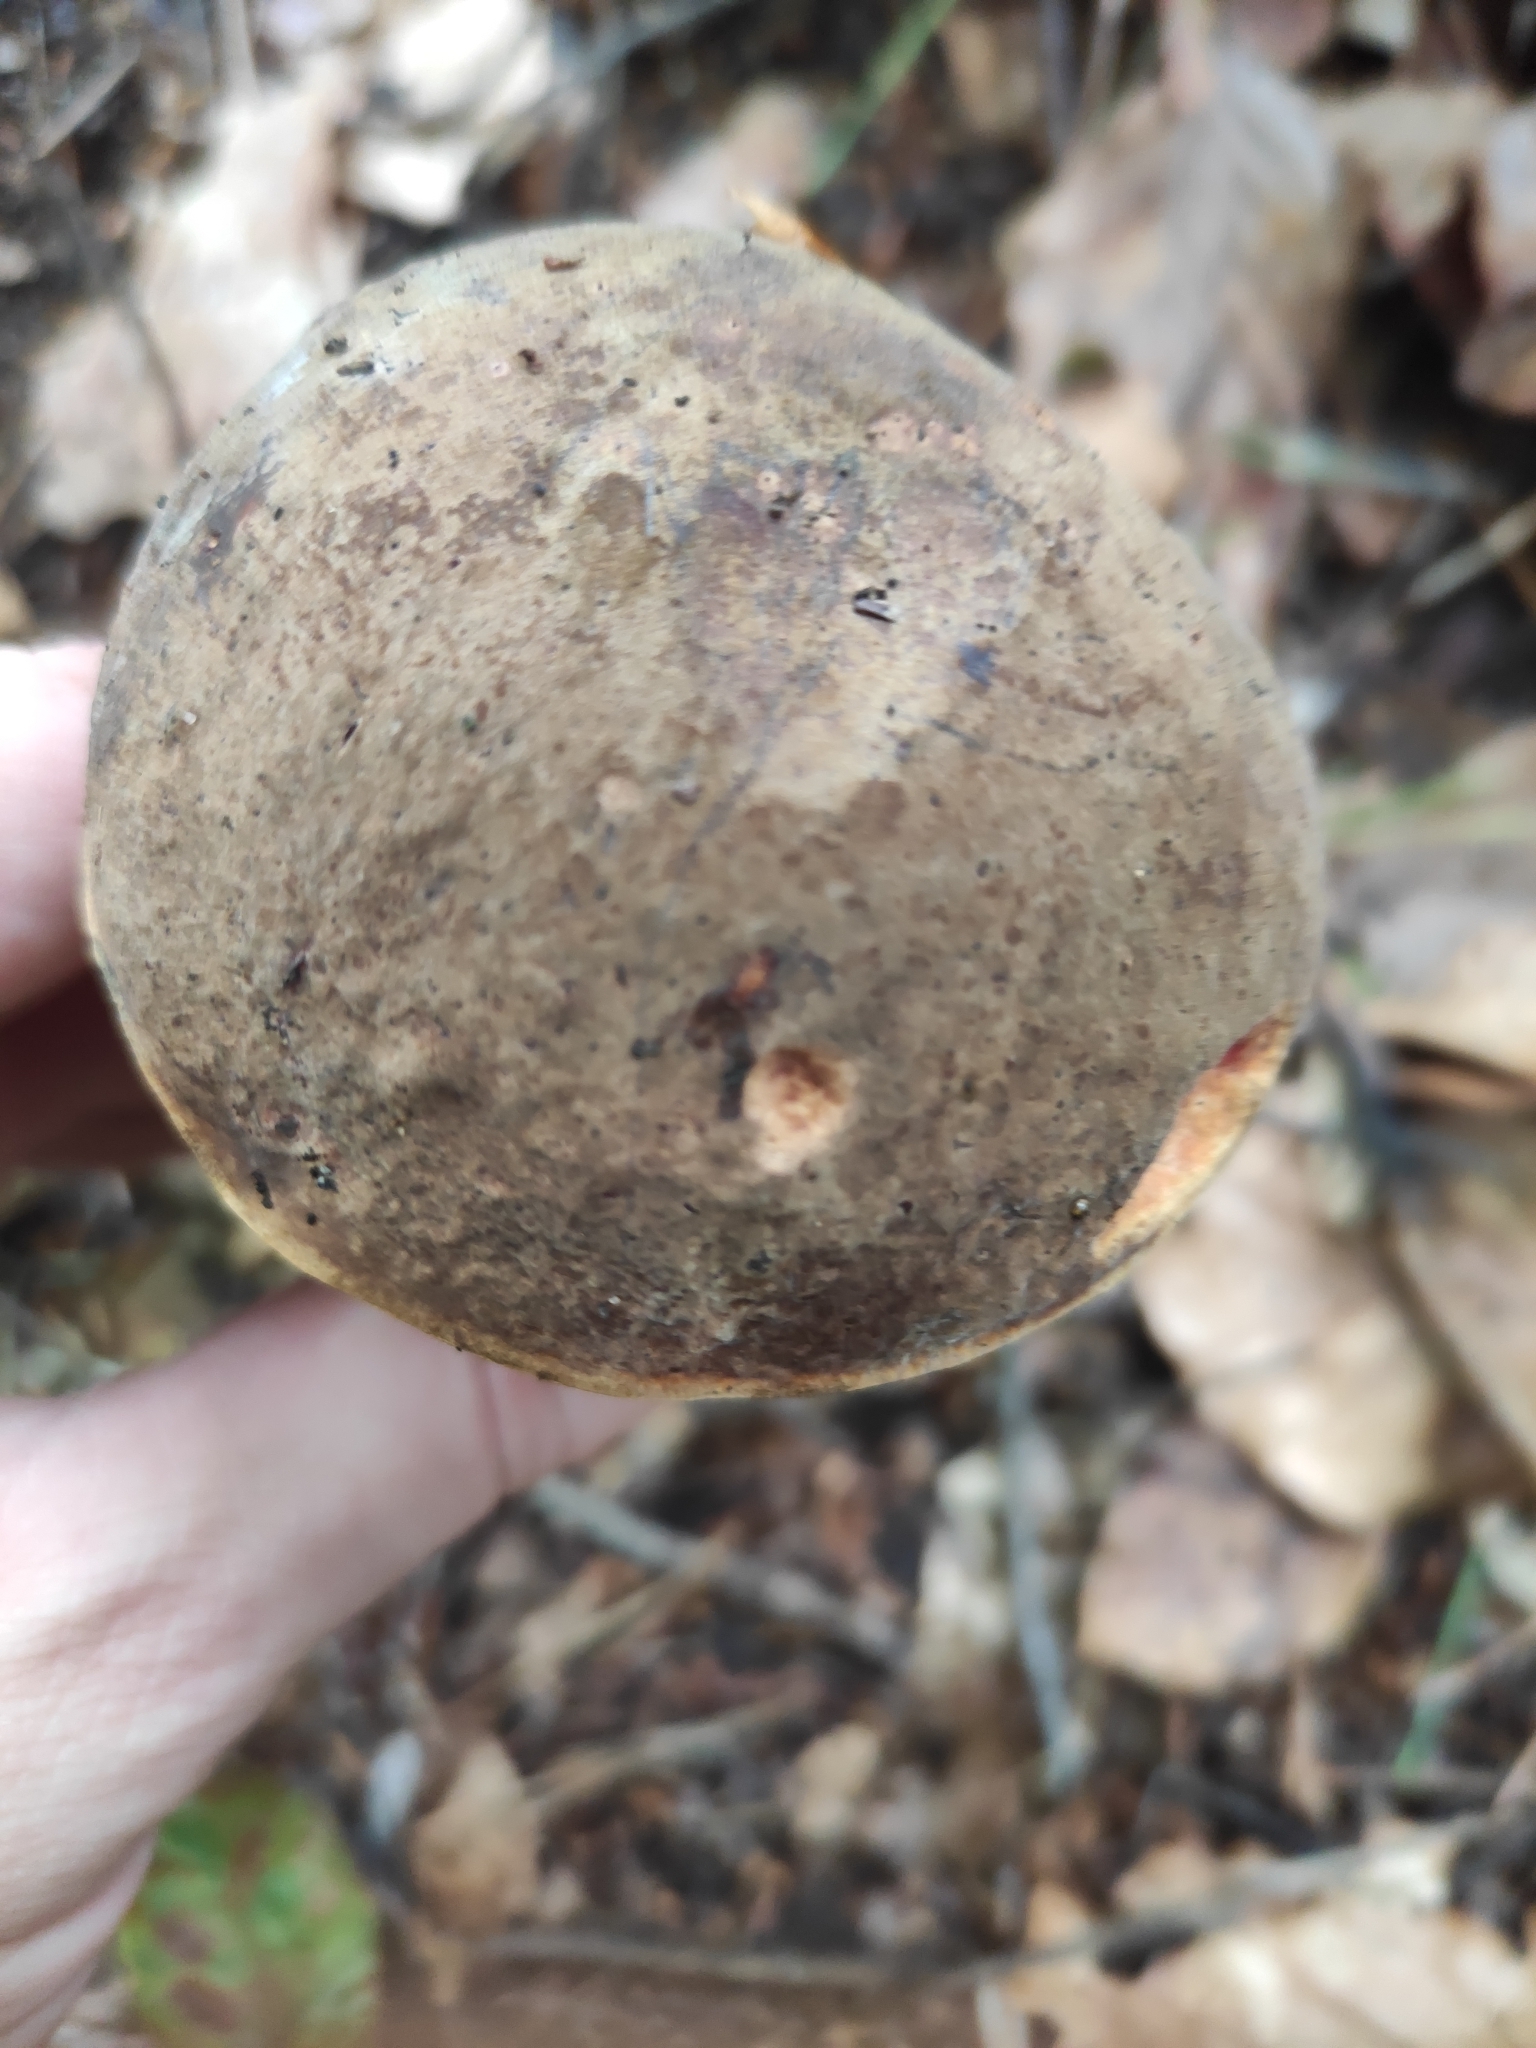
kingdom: Fungi
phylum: Basidiomycota
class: Agaricomycetes
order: Boletales
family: Boletaceae
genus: Neoboletus
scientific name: Neoboletus erythropus
